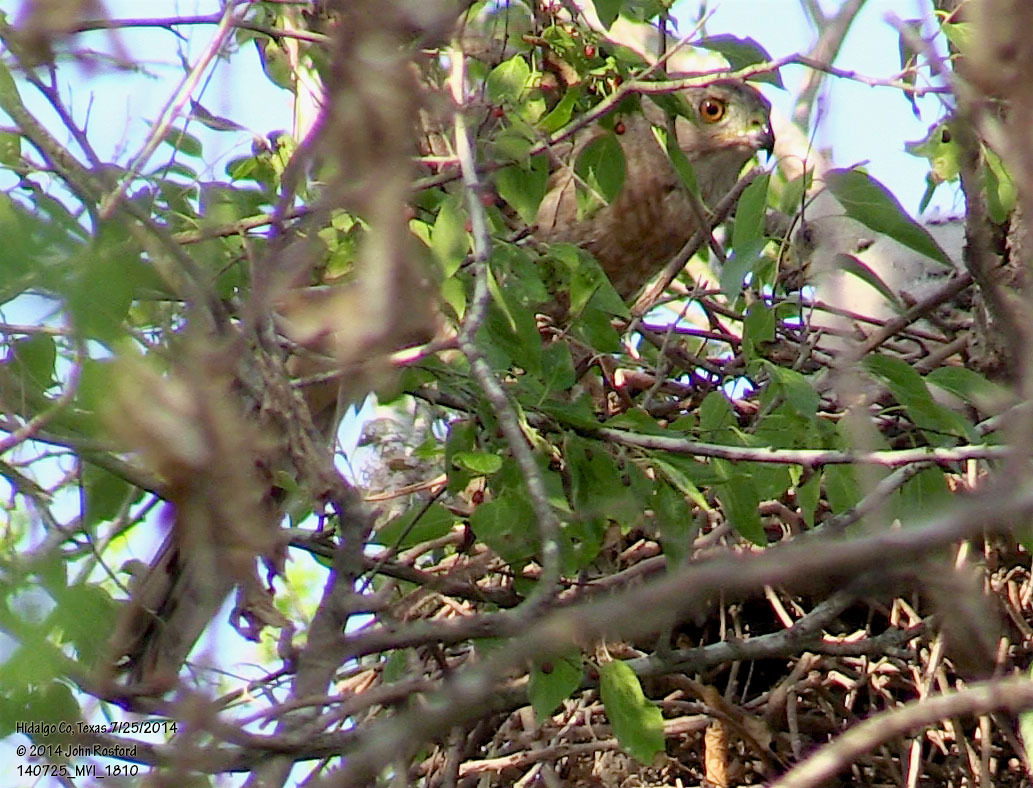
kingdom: Animalia
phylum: Chordata
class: Aves
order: Accipitriformes
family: Accipitridae
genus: Accipiter
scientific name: Accipiter cooperii
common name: Cooper's hawk
